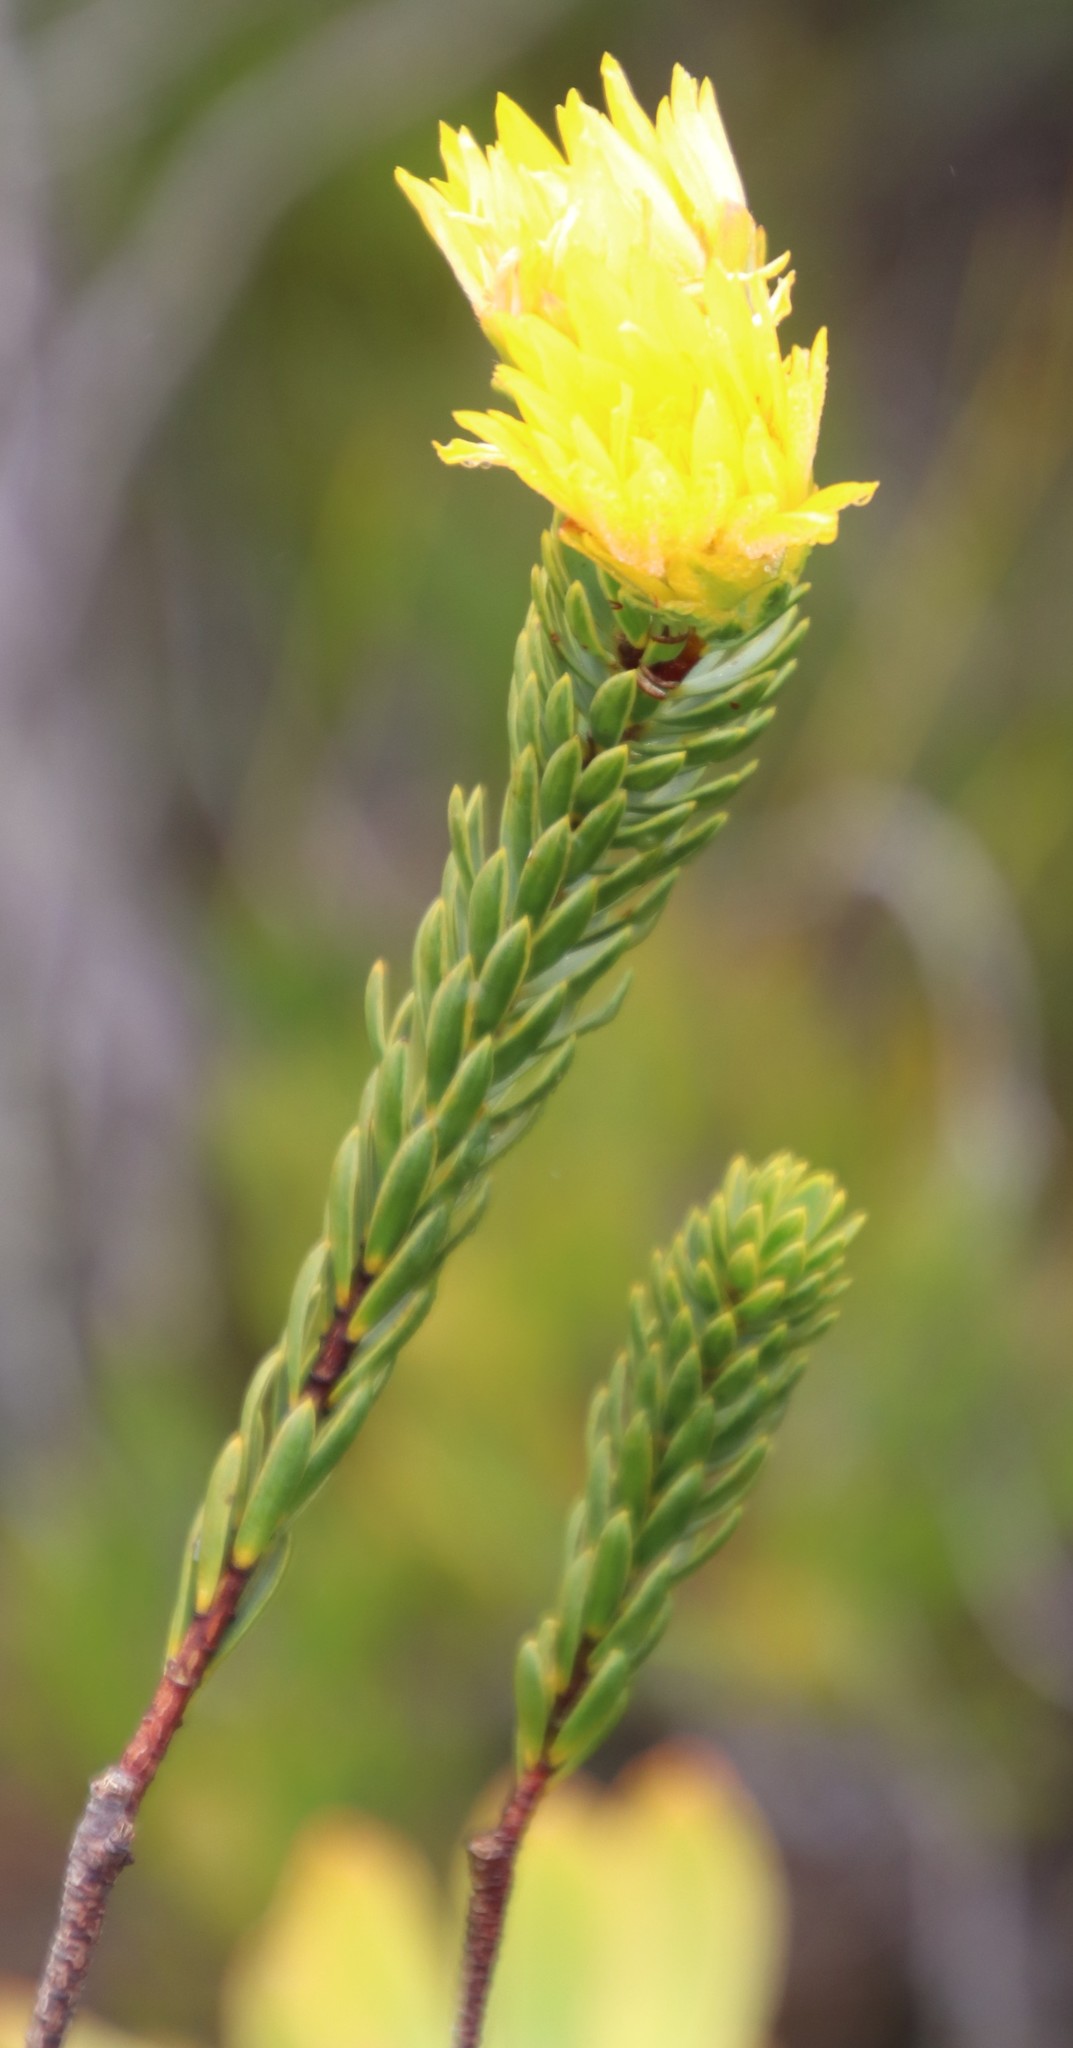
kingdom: Plantae
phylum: Tracheophyta
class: Magnoliopsida
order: Malvales
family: Thymelaeaceae
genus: Lachnaea
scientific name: Lachnaea aurea
